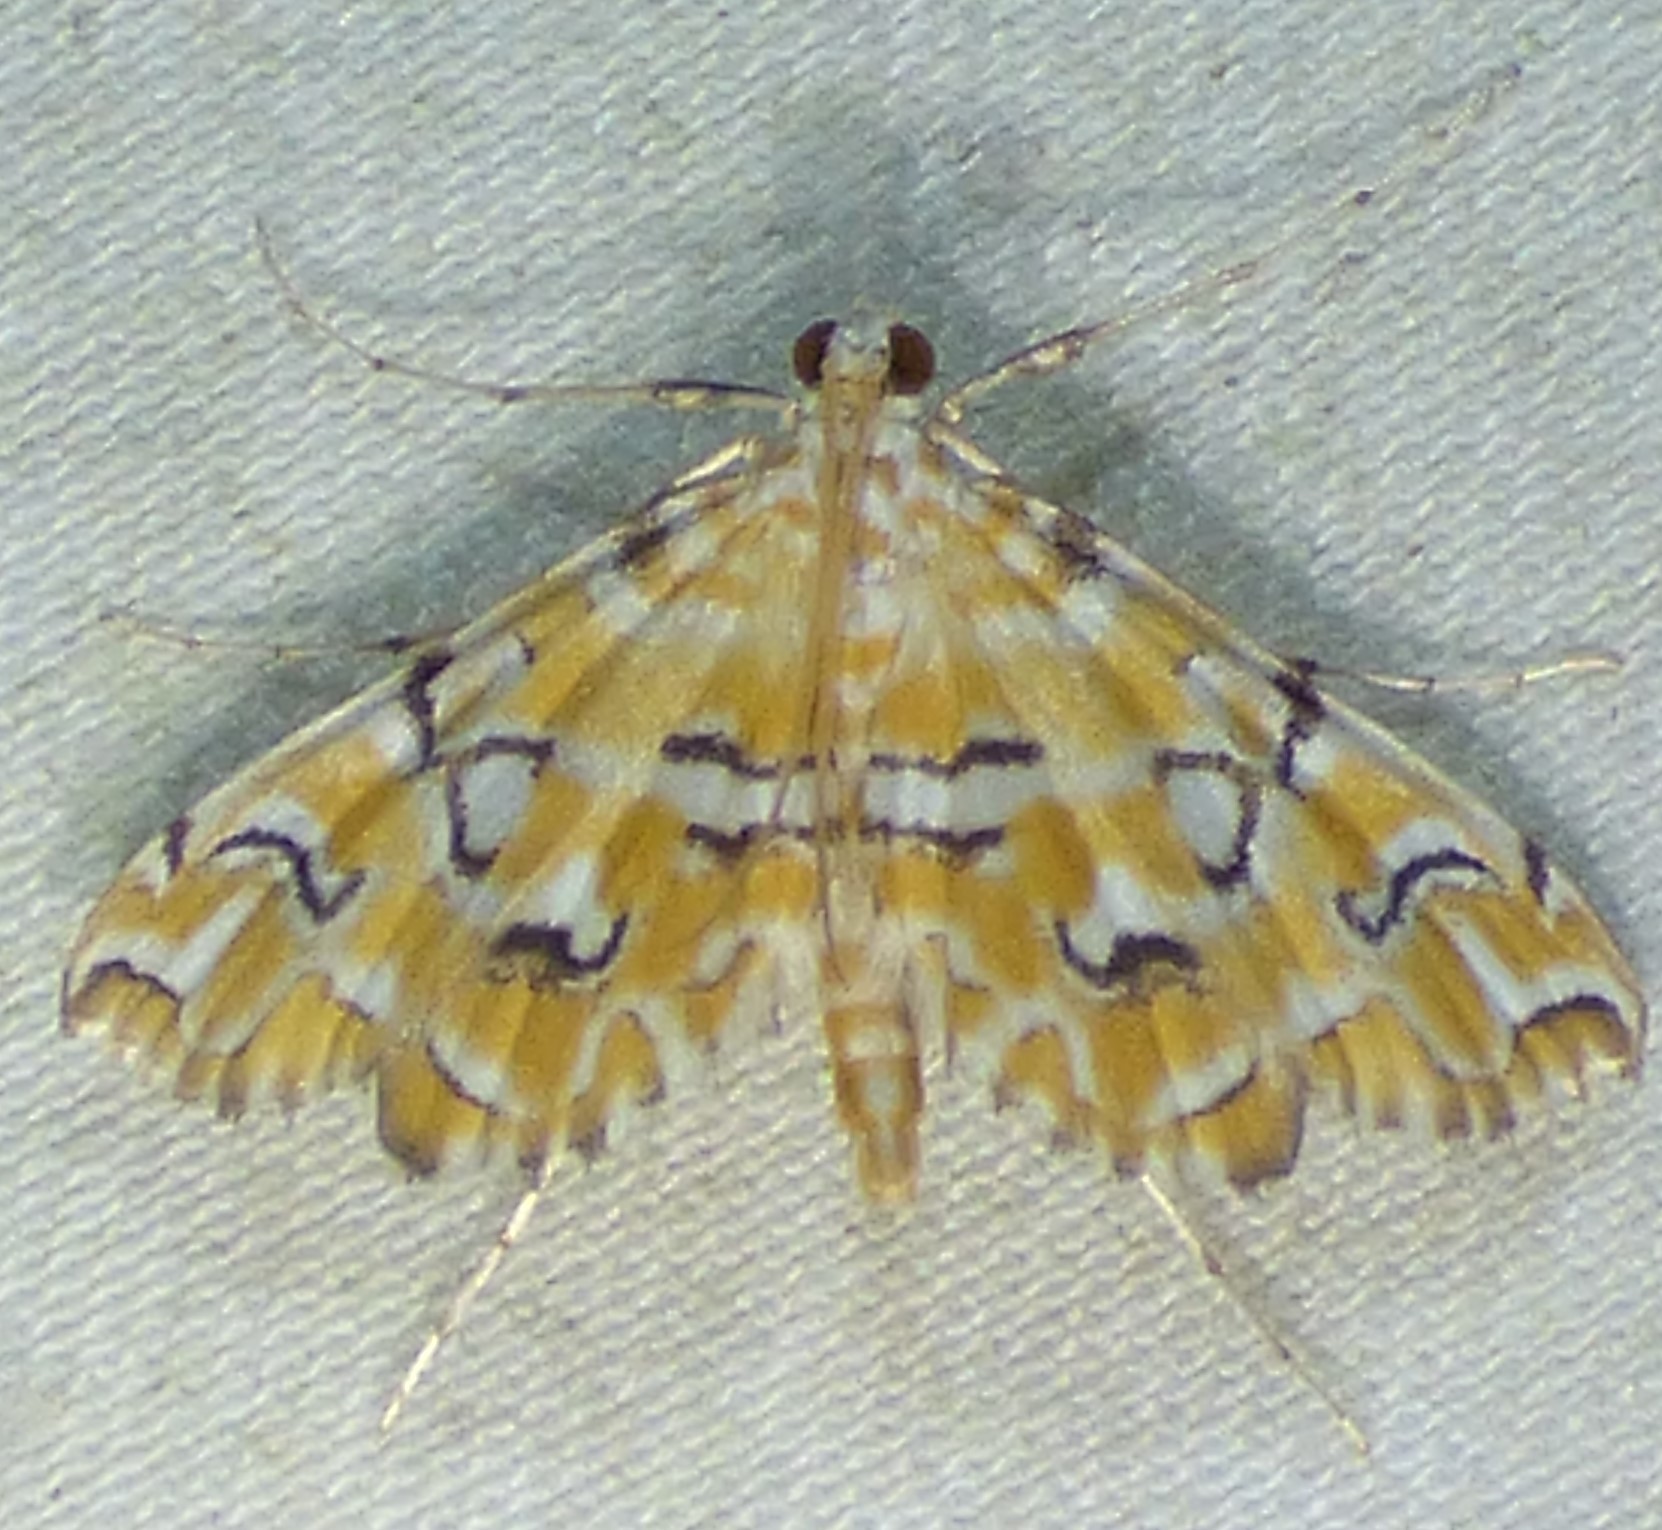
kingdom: Animalia
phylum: Arthropoda
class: Insecta
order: Lepidoptera
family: Crambidae
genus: Elophila
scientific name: Elophila icciusalis
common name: Pondside pyralid moth
